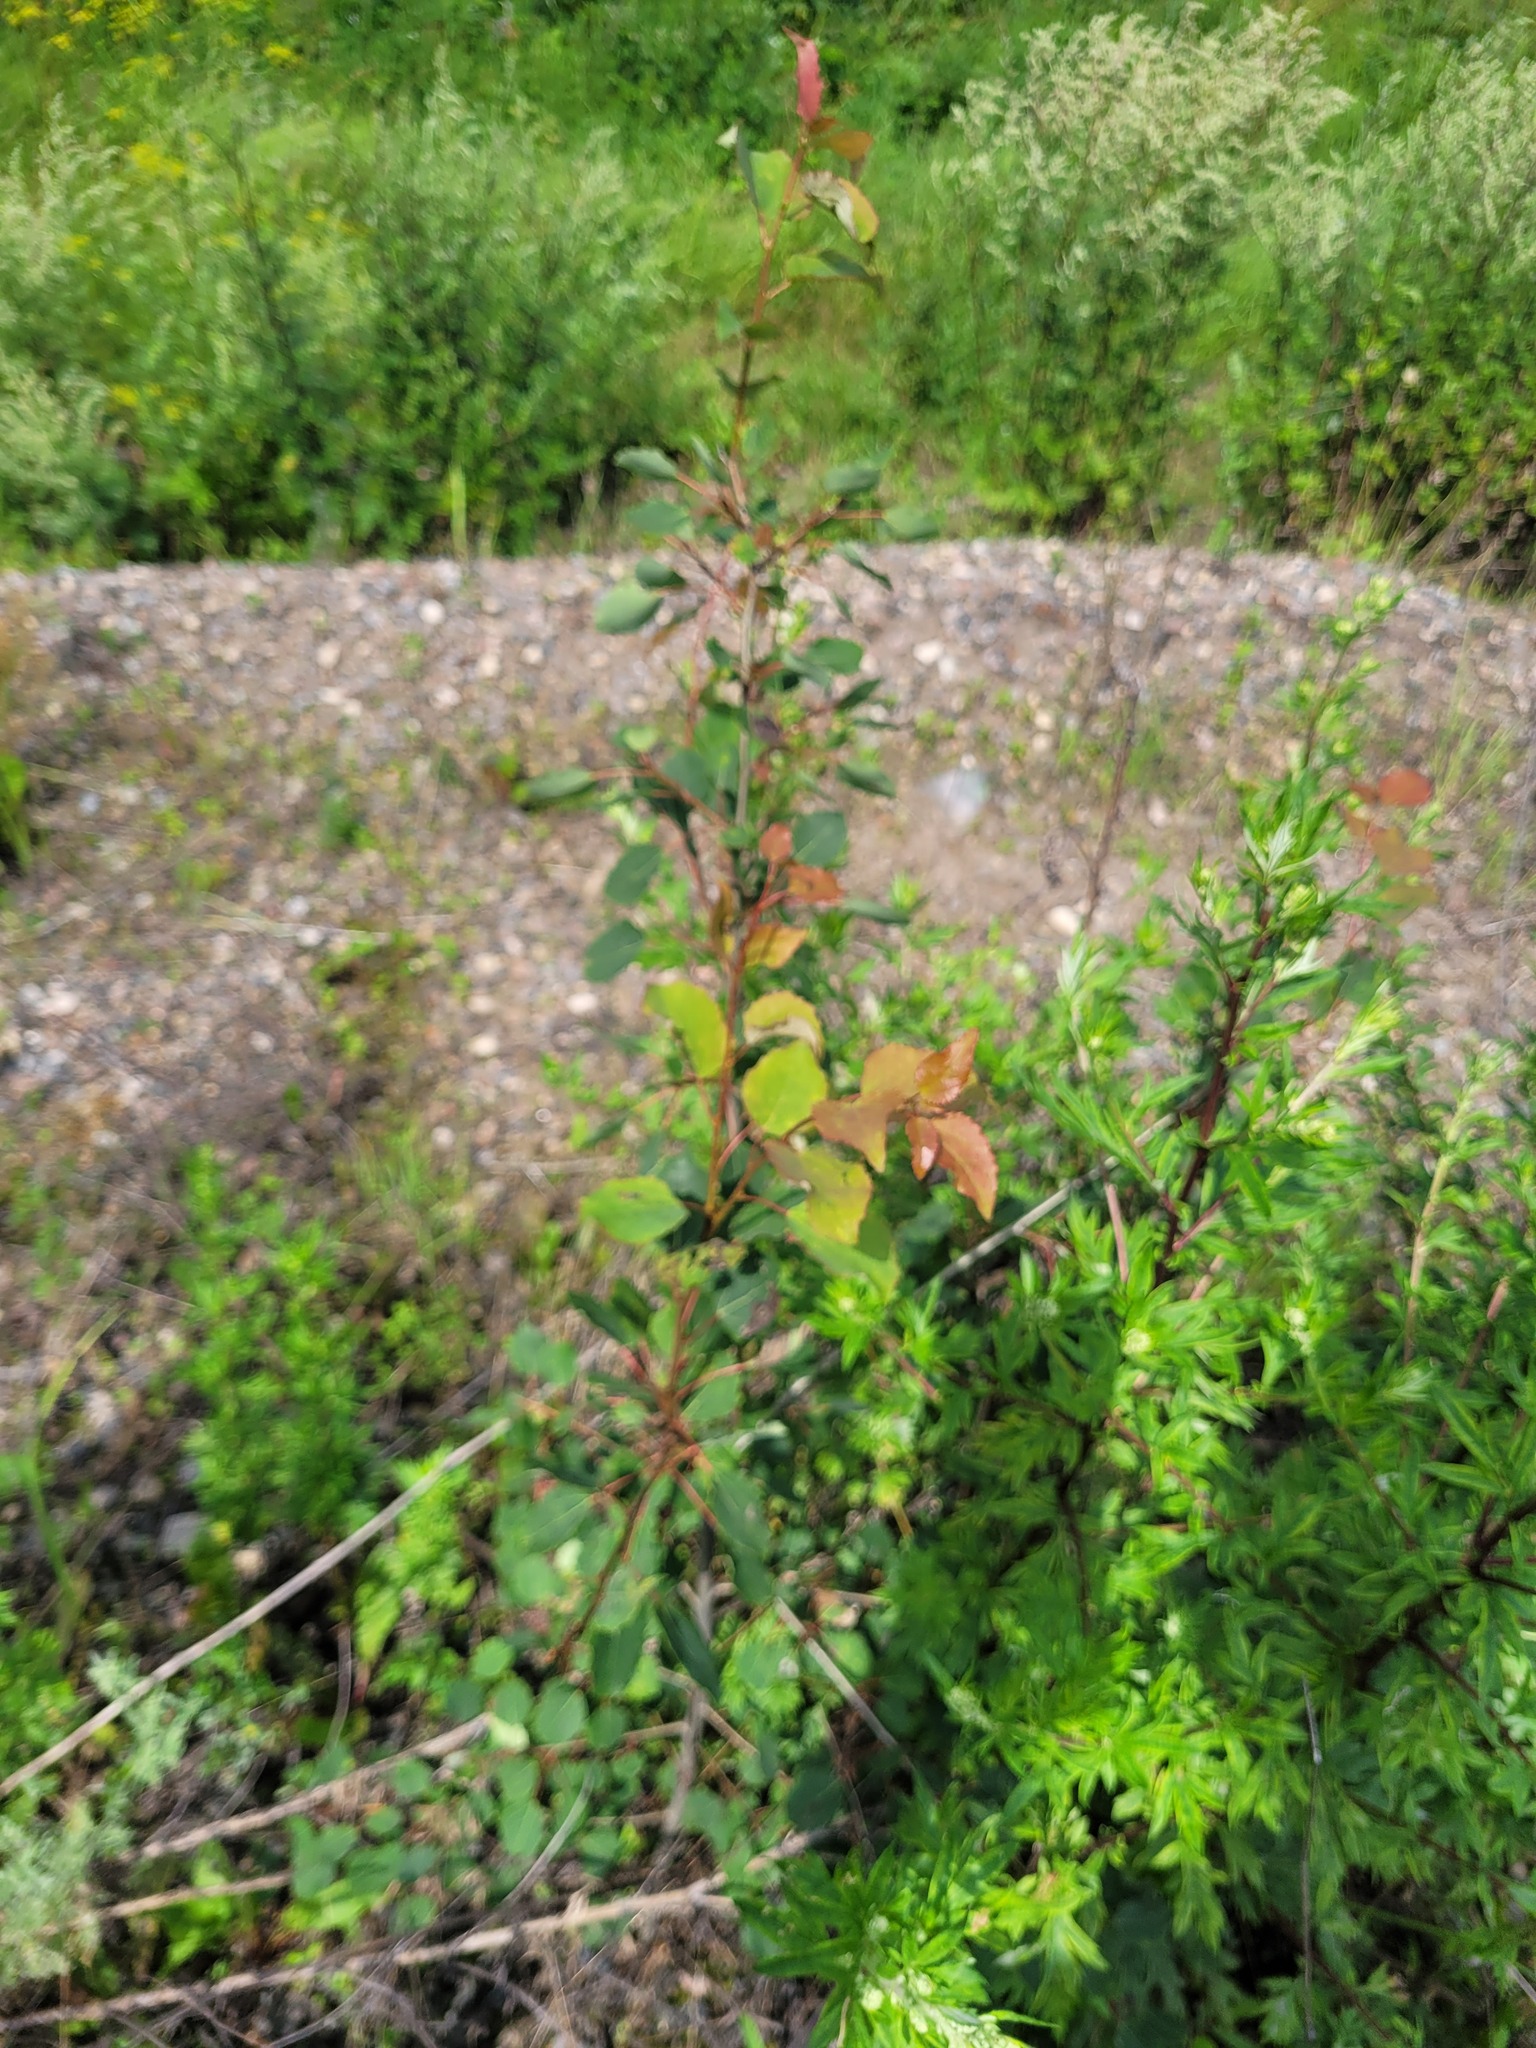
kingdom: Plantae
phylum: Tracheophyta
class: Magnoliopsida
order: Malpighiales
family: Salicaceae
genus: Populus
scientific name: Populus tremula
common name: European aspen
